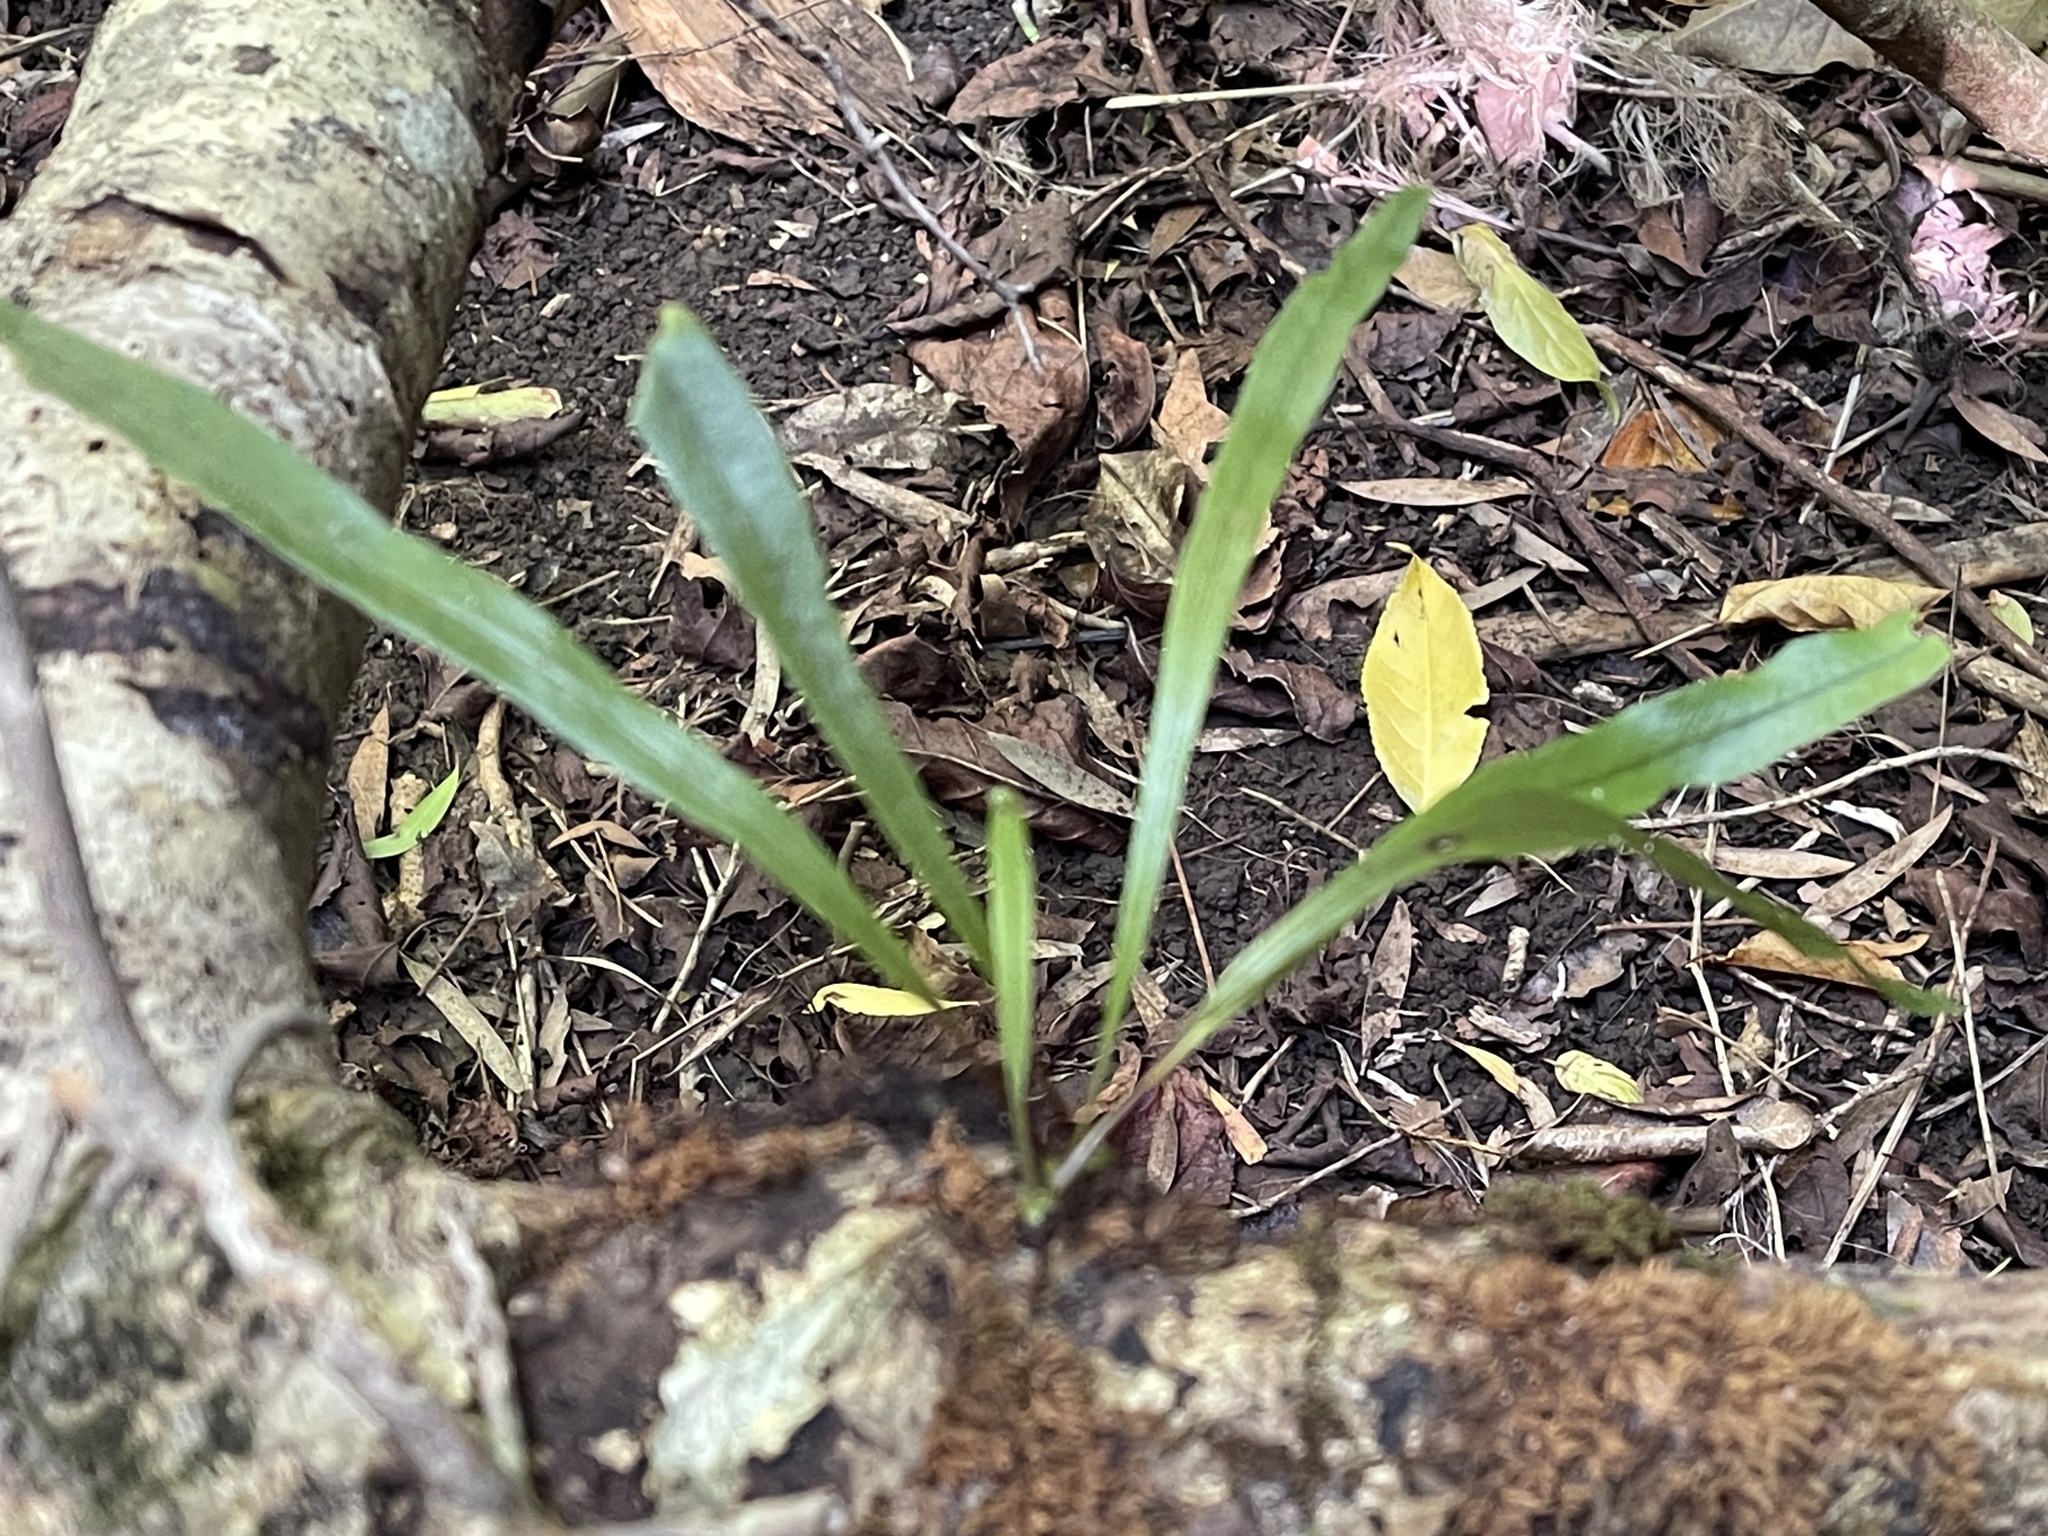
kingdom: Plantae
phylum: Tracheophyta
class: Polypodiopsida
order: Polypodiales
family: Polypodiaceae
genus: Lepisorus
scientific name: Lepisorus thunbergianus
